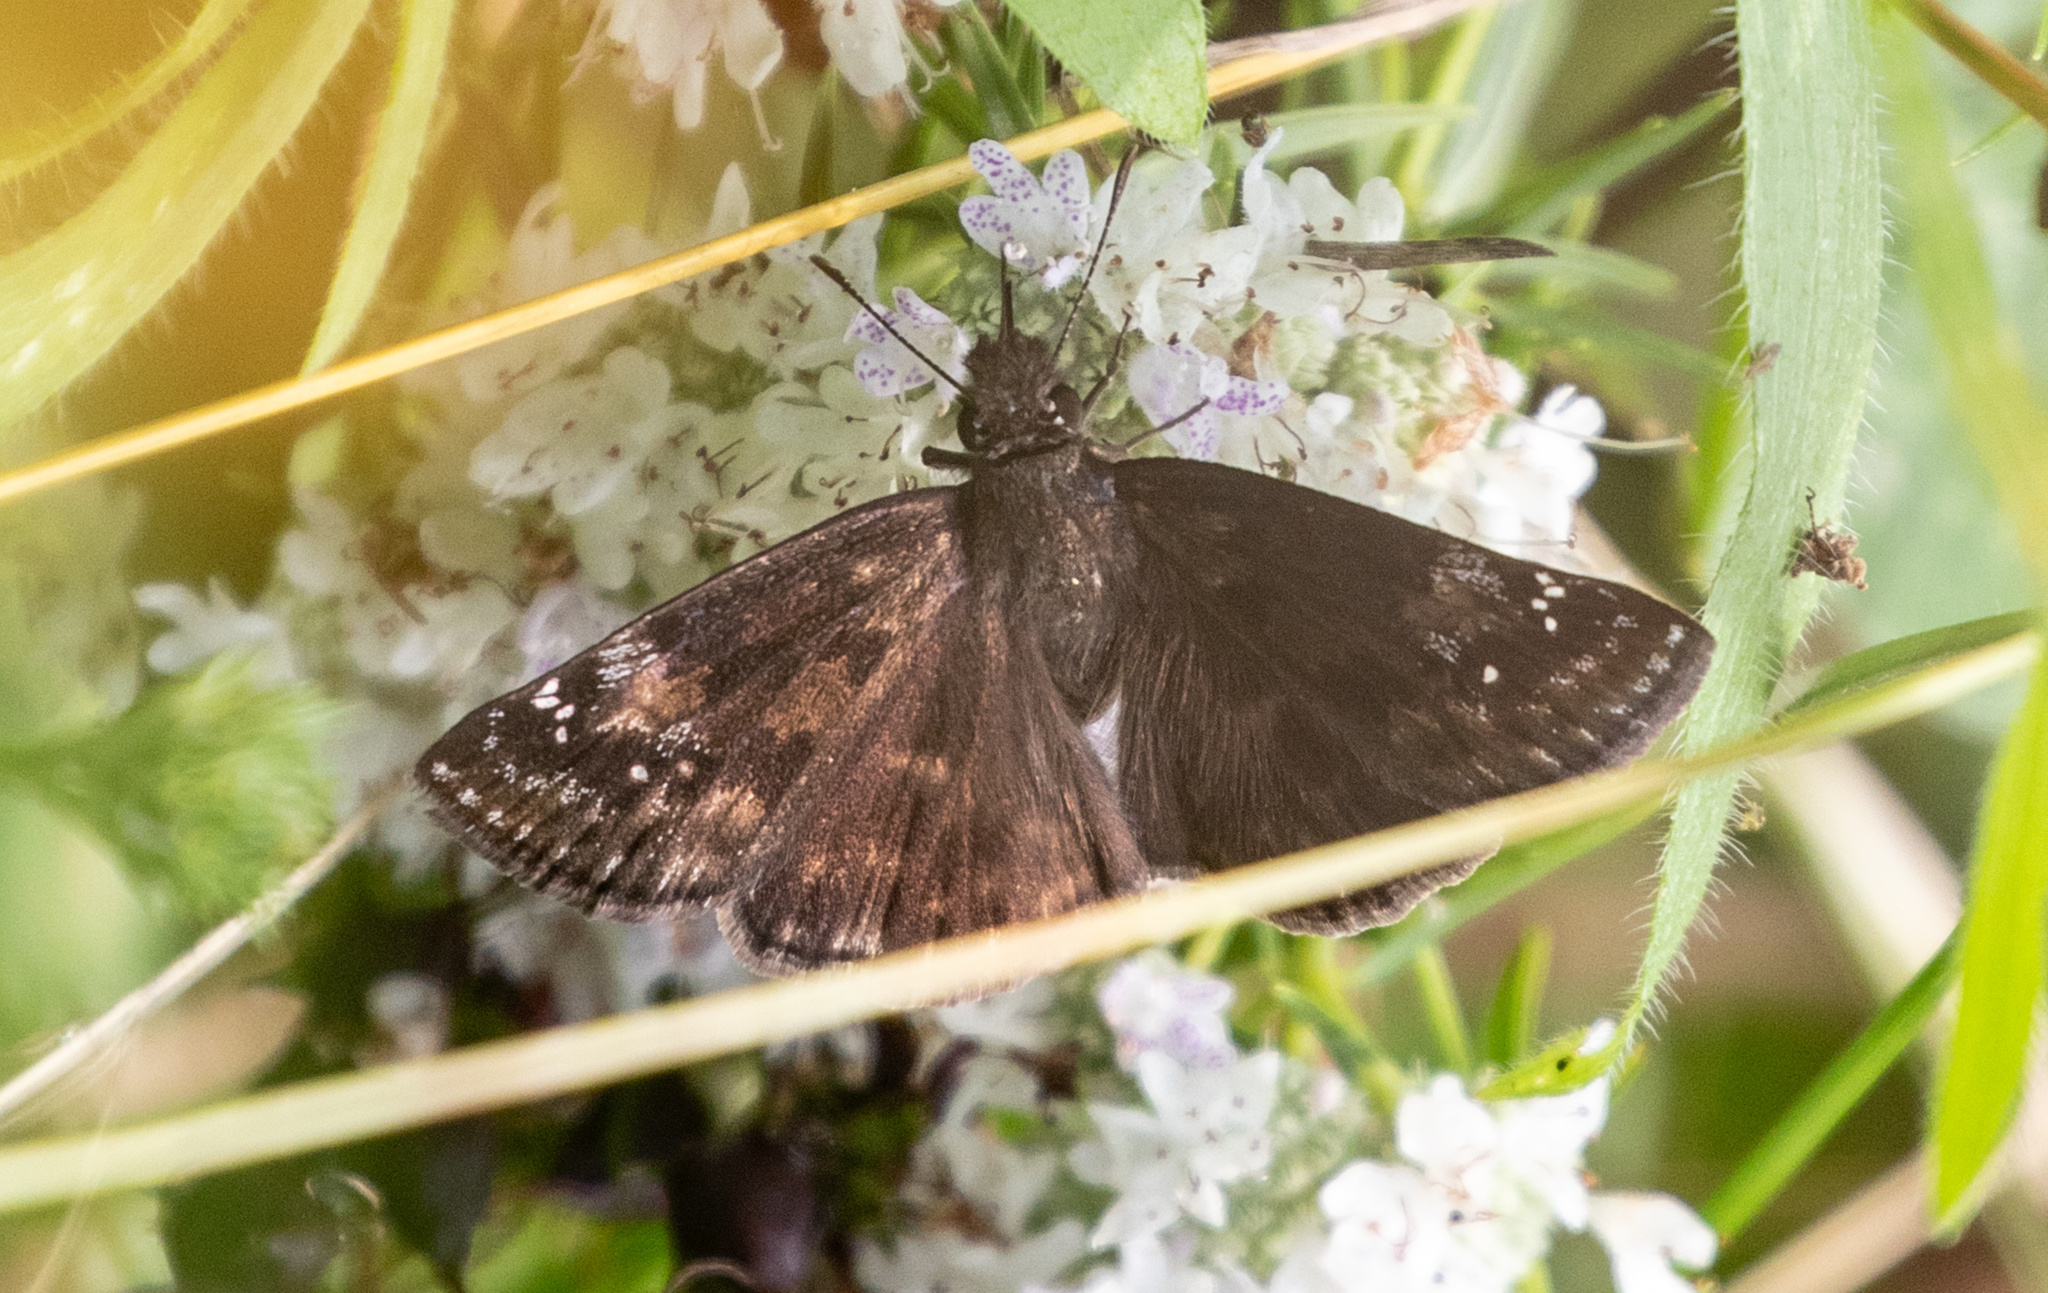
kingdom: Animalia
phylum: Arthropoda
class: Insecta
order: Lepidoptera
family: Hesperiidae
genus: Erynnis
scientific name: Erynnis baptisiae
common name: Wild indigo duskywing
